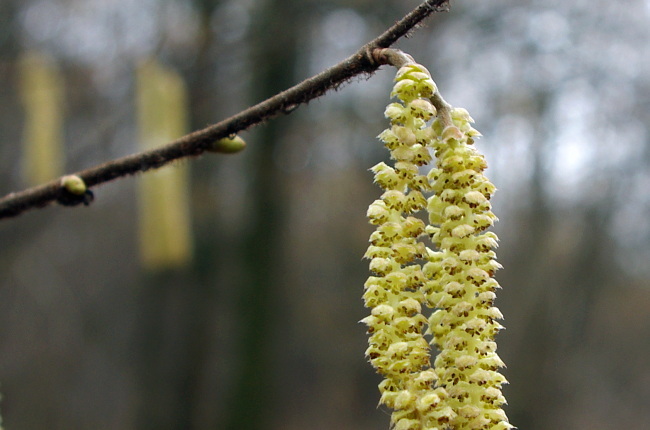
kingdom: Plantae
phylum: Tracheophyta
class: Magnoliopsida
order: Fagales
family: Betulaceae
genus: Corylus
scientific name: Corylus avellana
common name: European hazel
